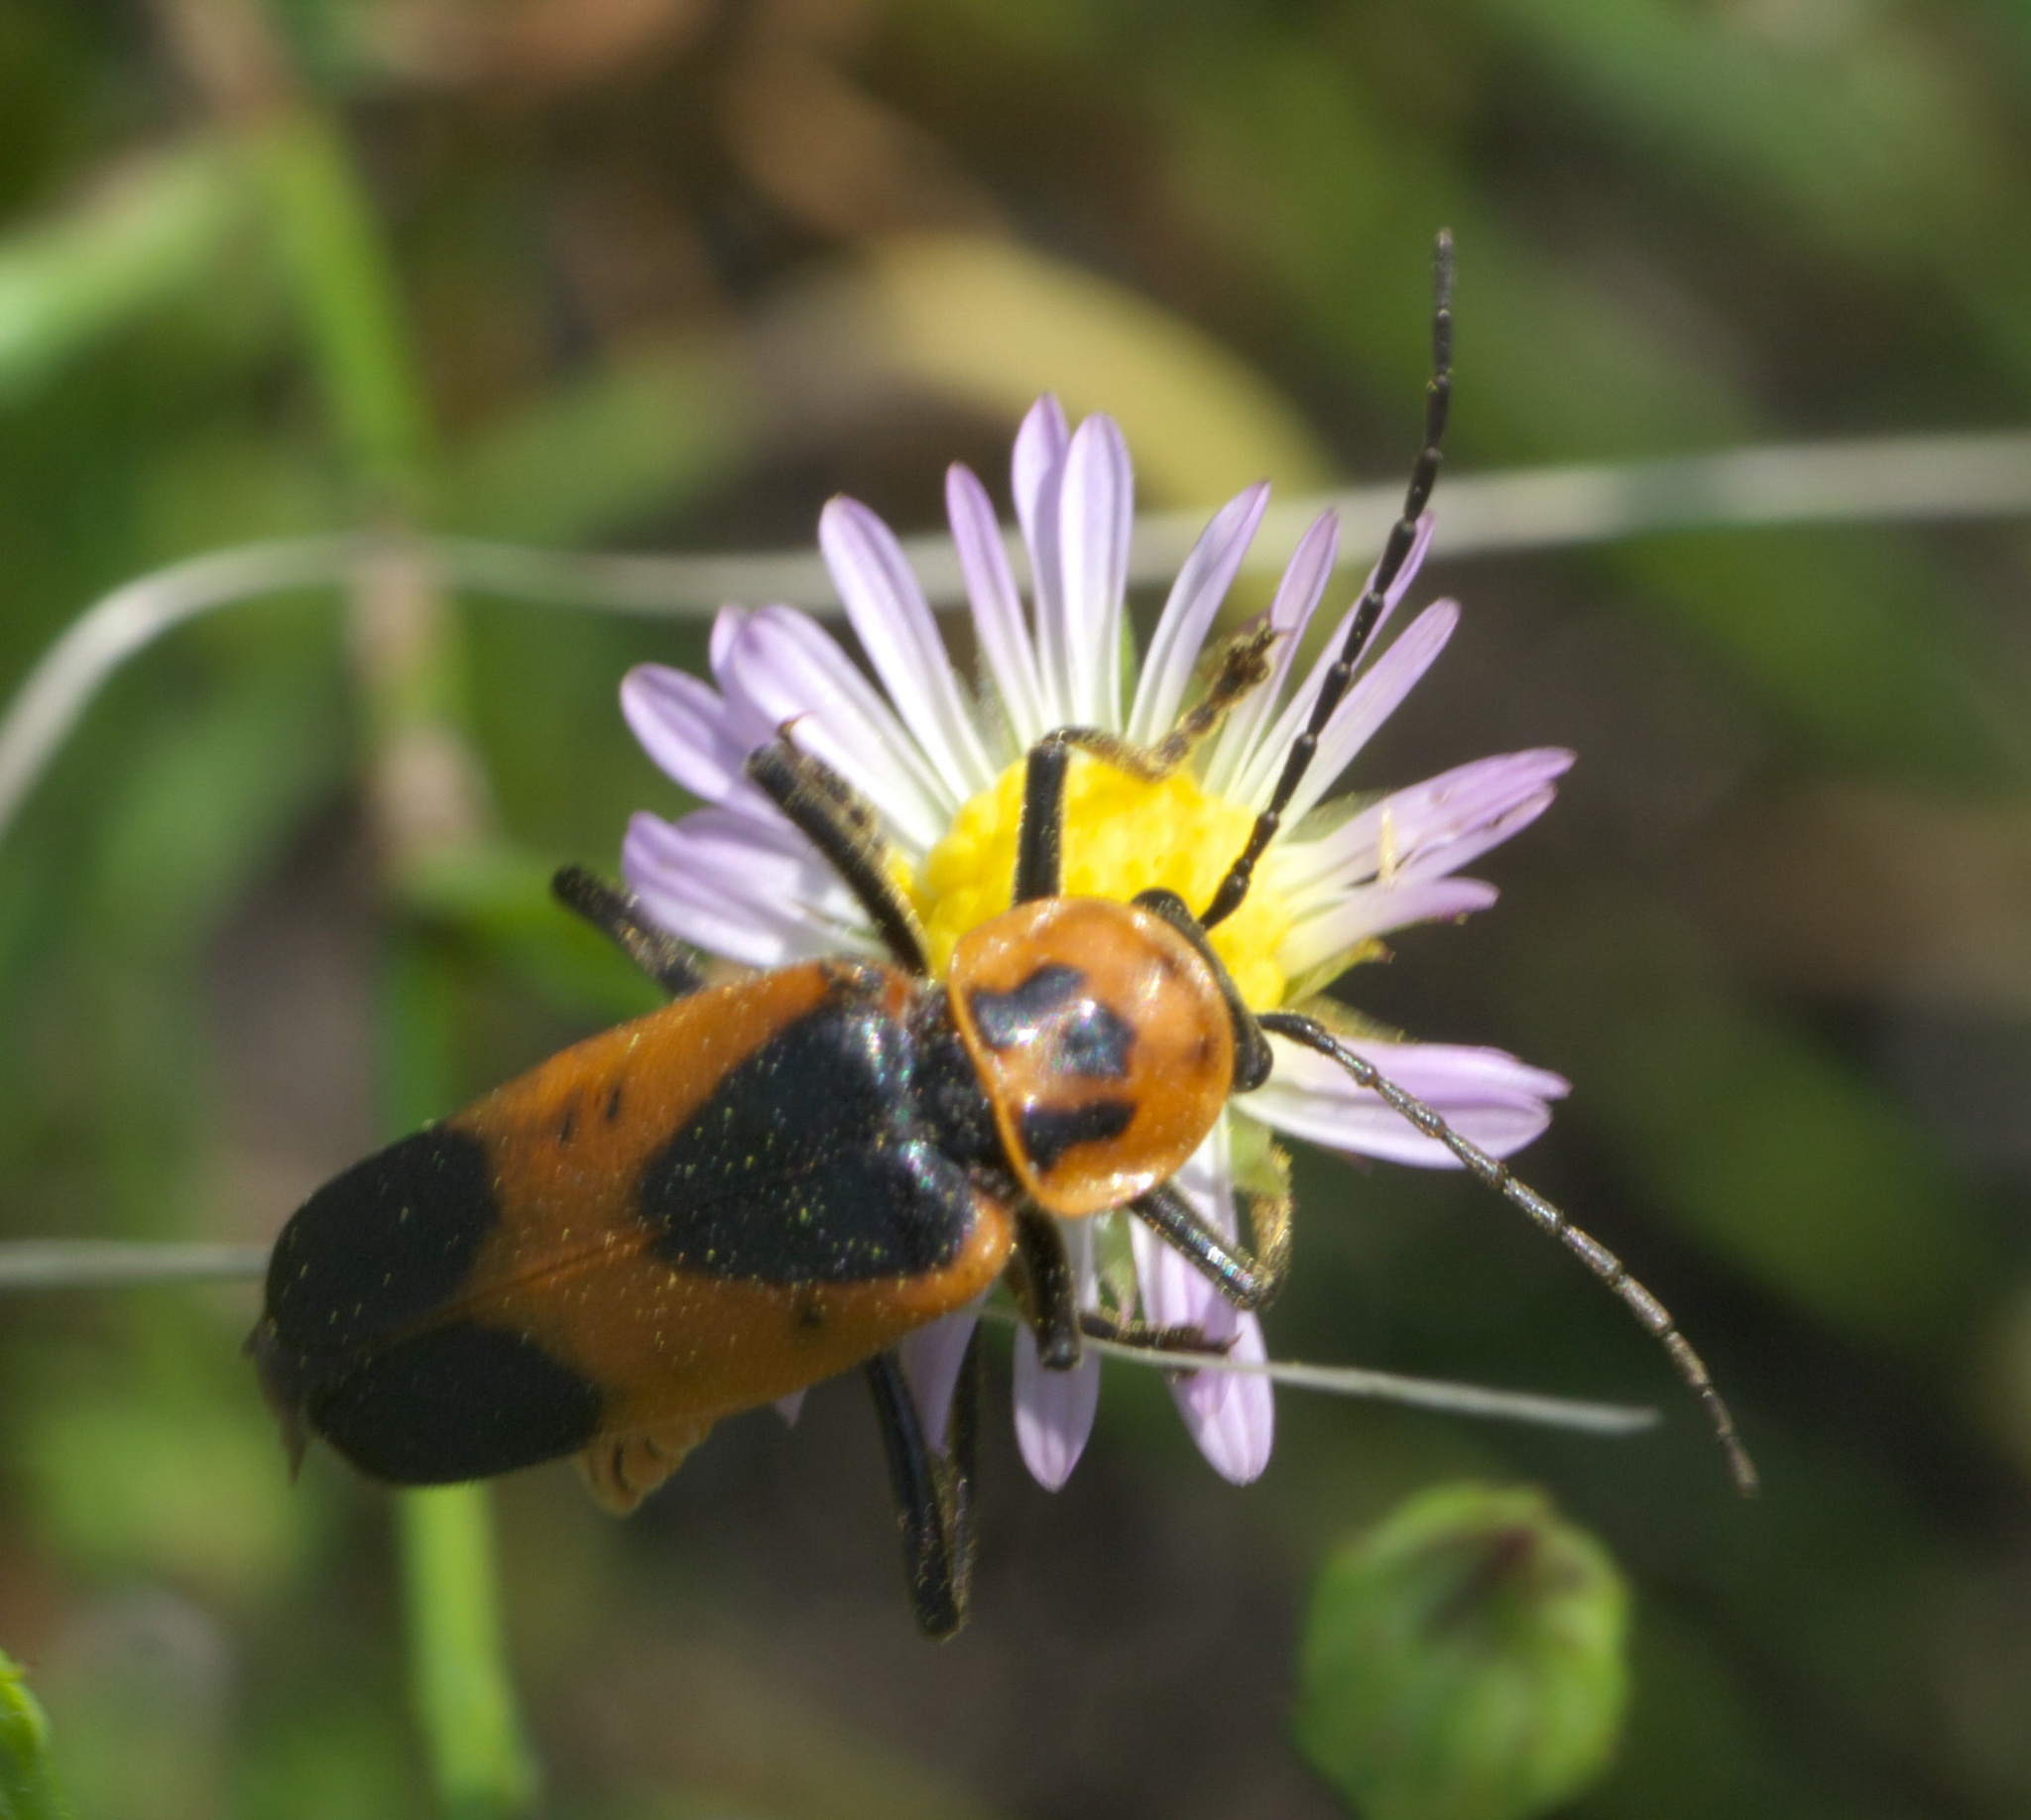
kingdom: Animalia
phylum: Arthropoda
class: Insecta
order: Coleoptera
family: Cantharidae
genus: Chauliognathus
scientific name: Chauliognathus basalis
